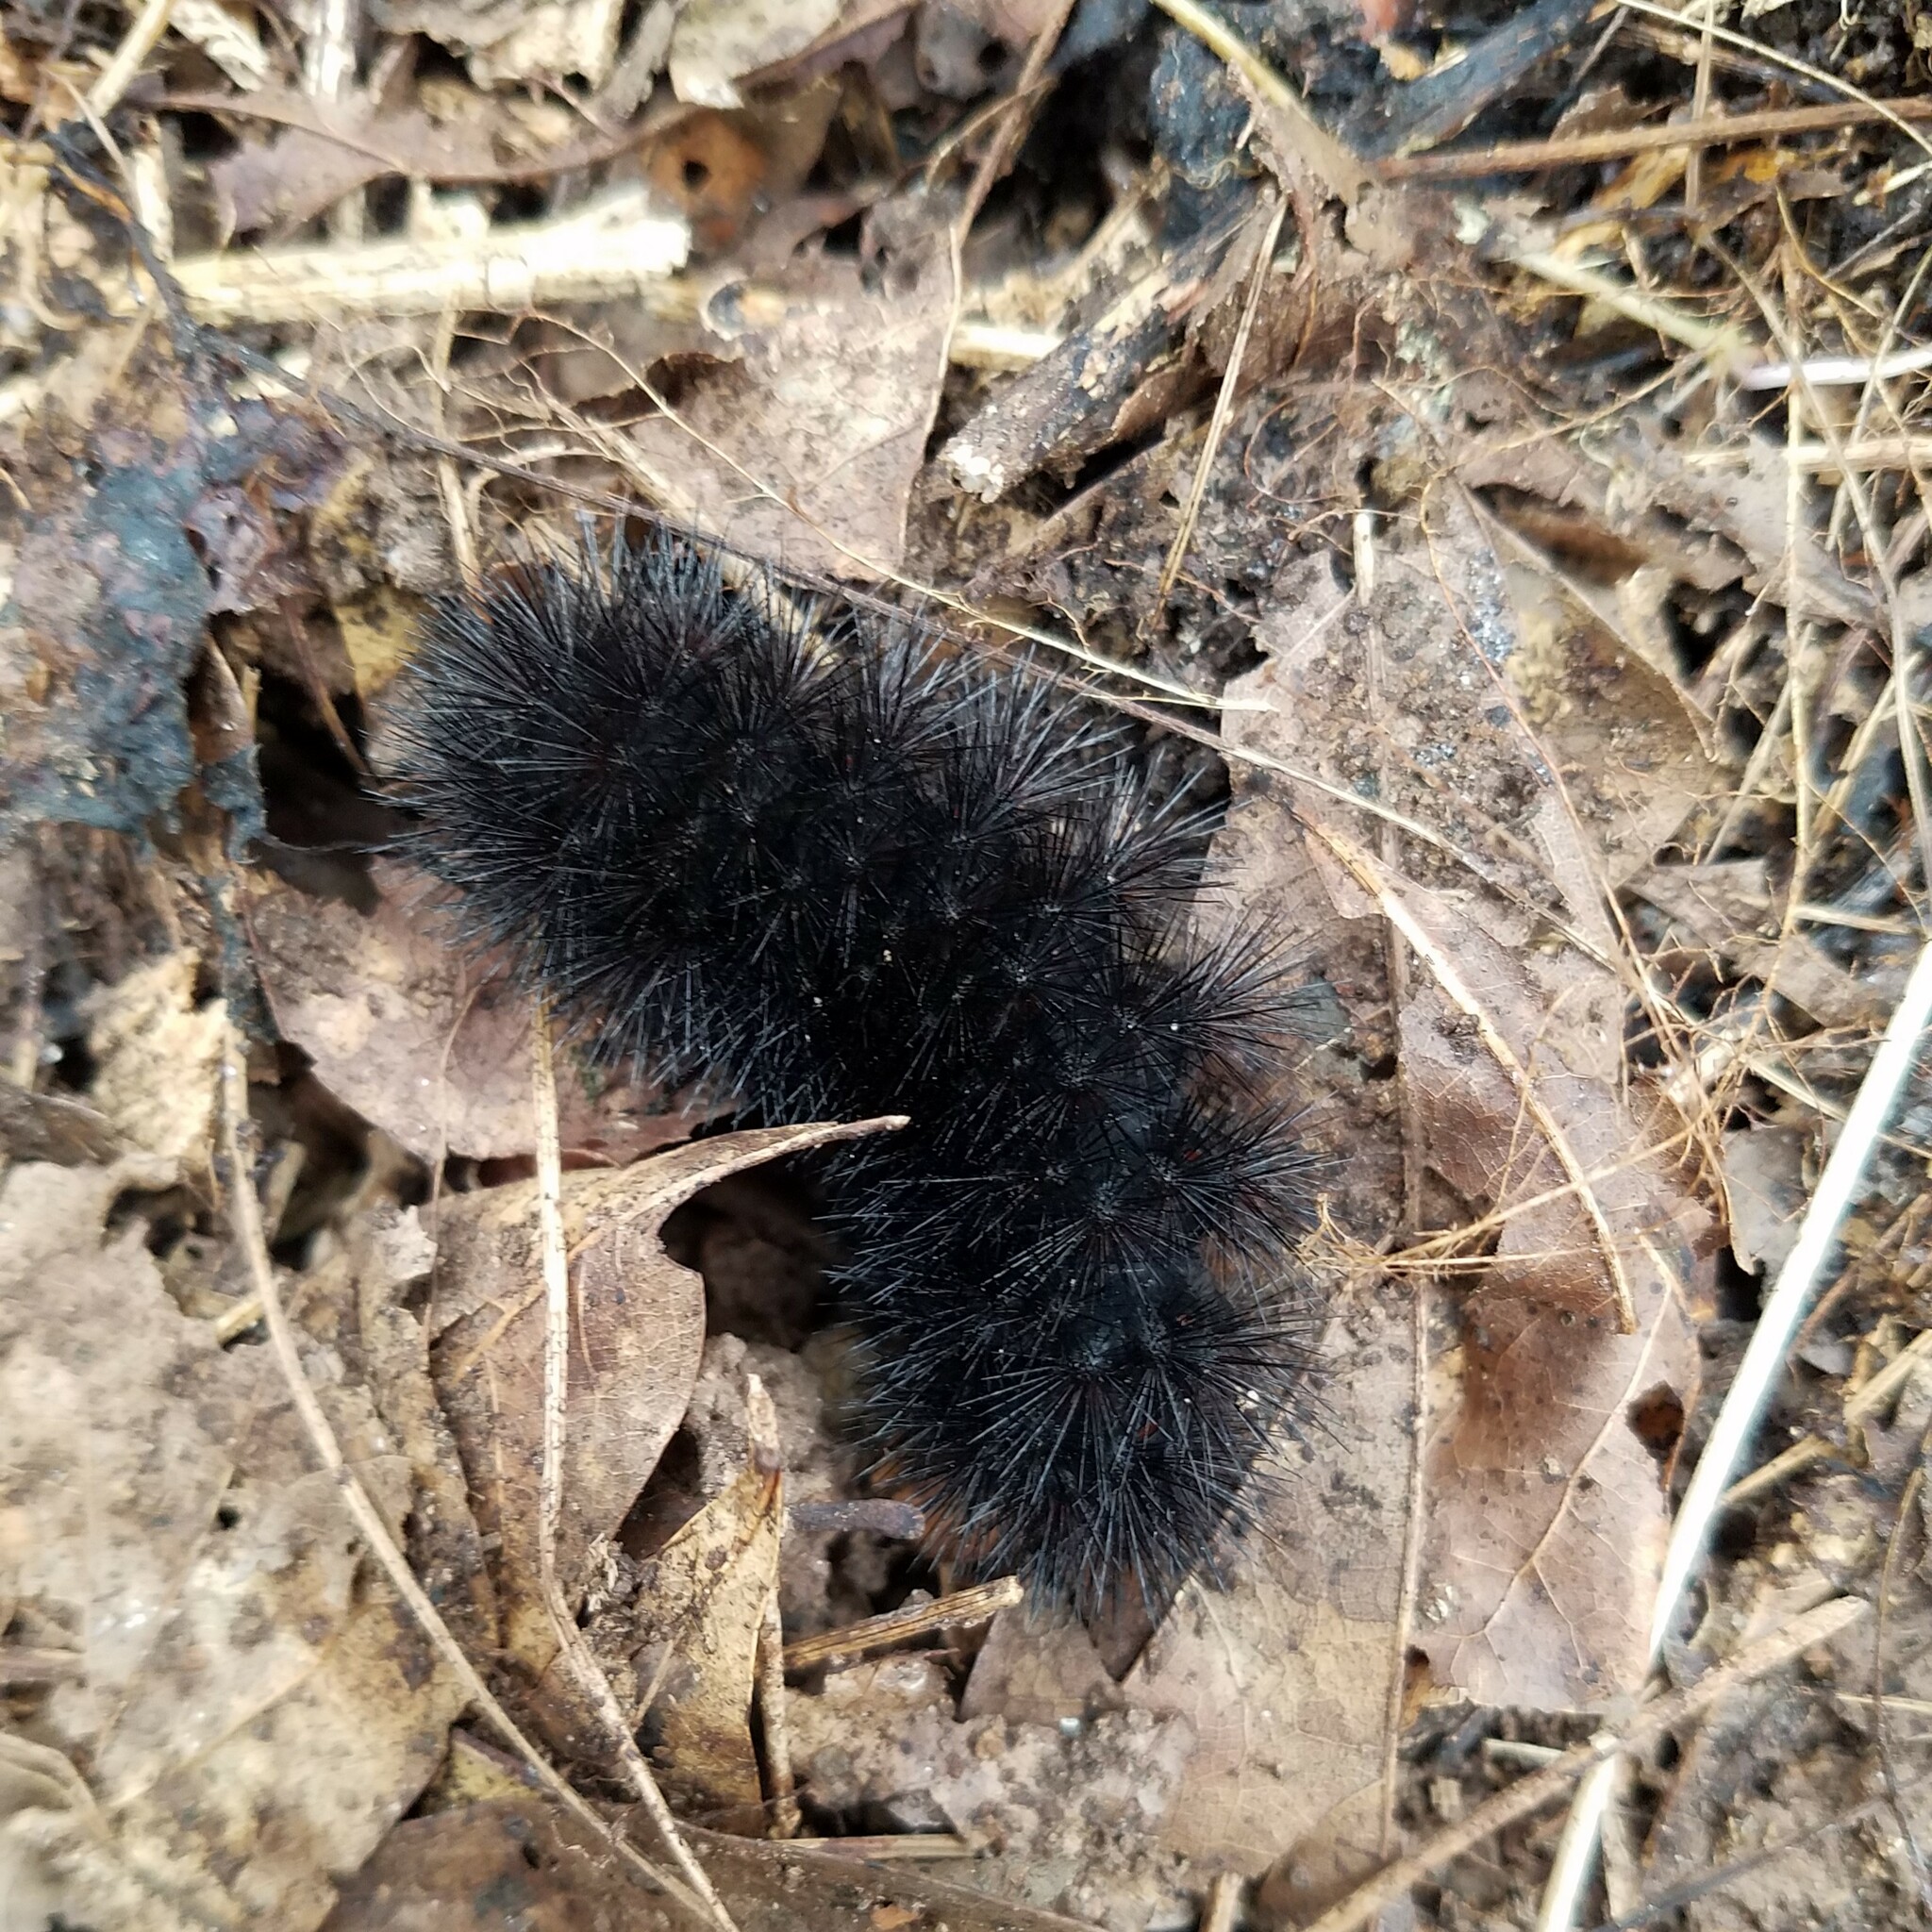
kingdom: Animalia
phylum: Arthropoda
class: Insecta
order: Lepidoptera
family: Erebidae
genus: Hypercompe
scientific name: Hypercompe scribonia
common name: Giant leopard moth
